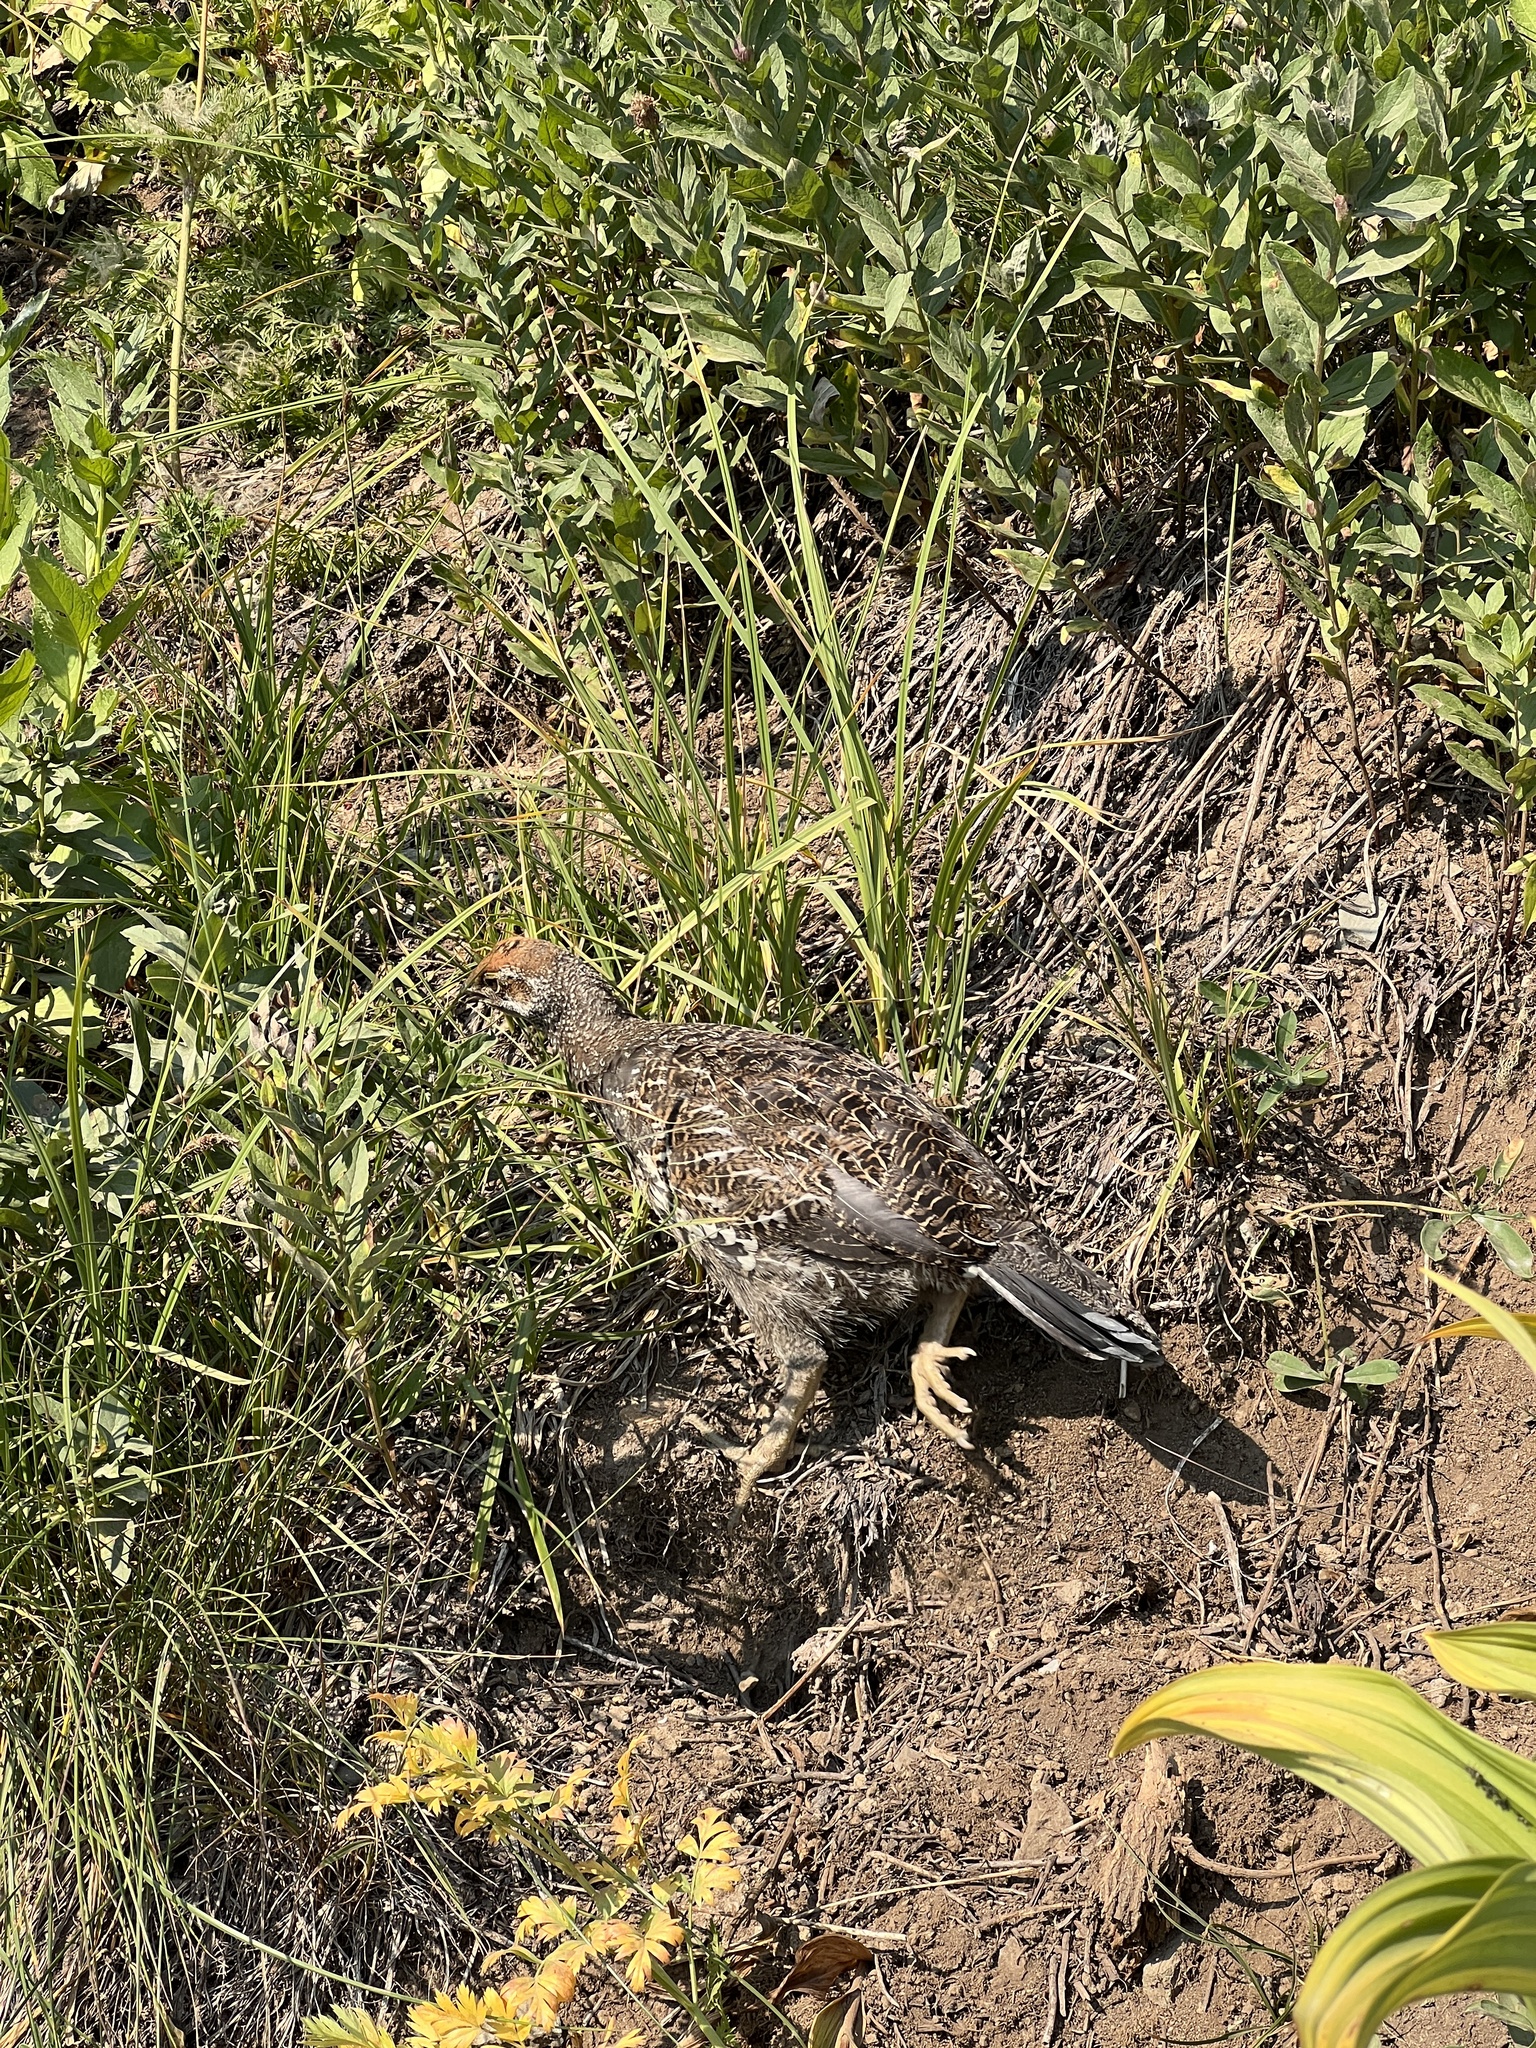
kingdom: Animalia
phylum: Chordata
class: Aves
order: Galliformes
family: Phasianidae
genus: Dendragapus
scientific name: Dendragapus fuliginosus
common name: Sooty grouse
